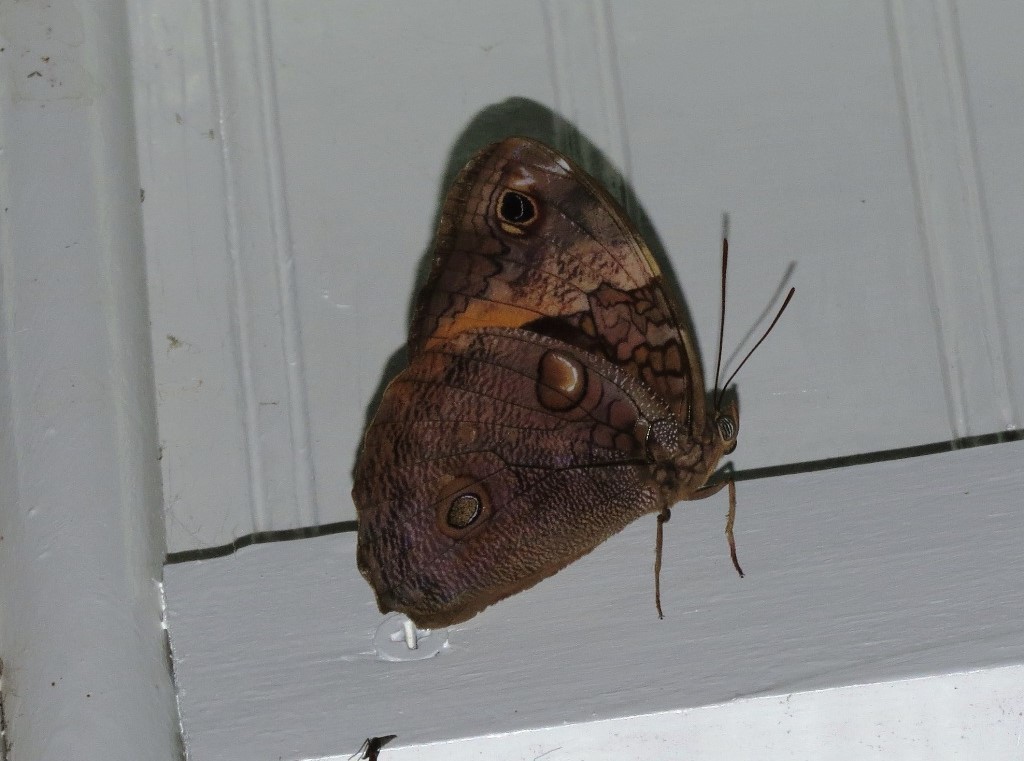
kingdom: Animalia
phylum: Arthropoda
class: Insecta
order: Lepidoptera
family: Nymphalidae
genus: Opsiphanes
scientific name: Opsiphanes cassiae
